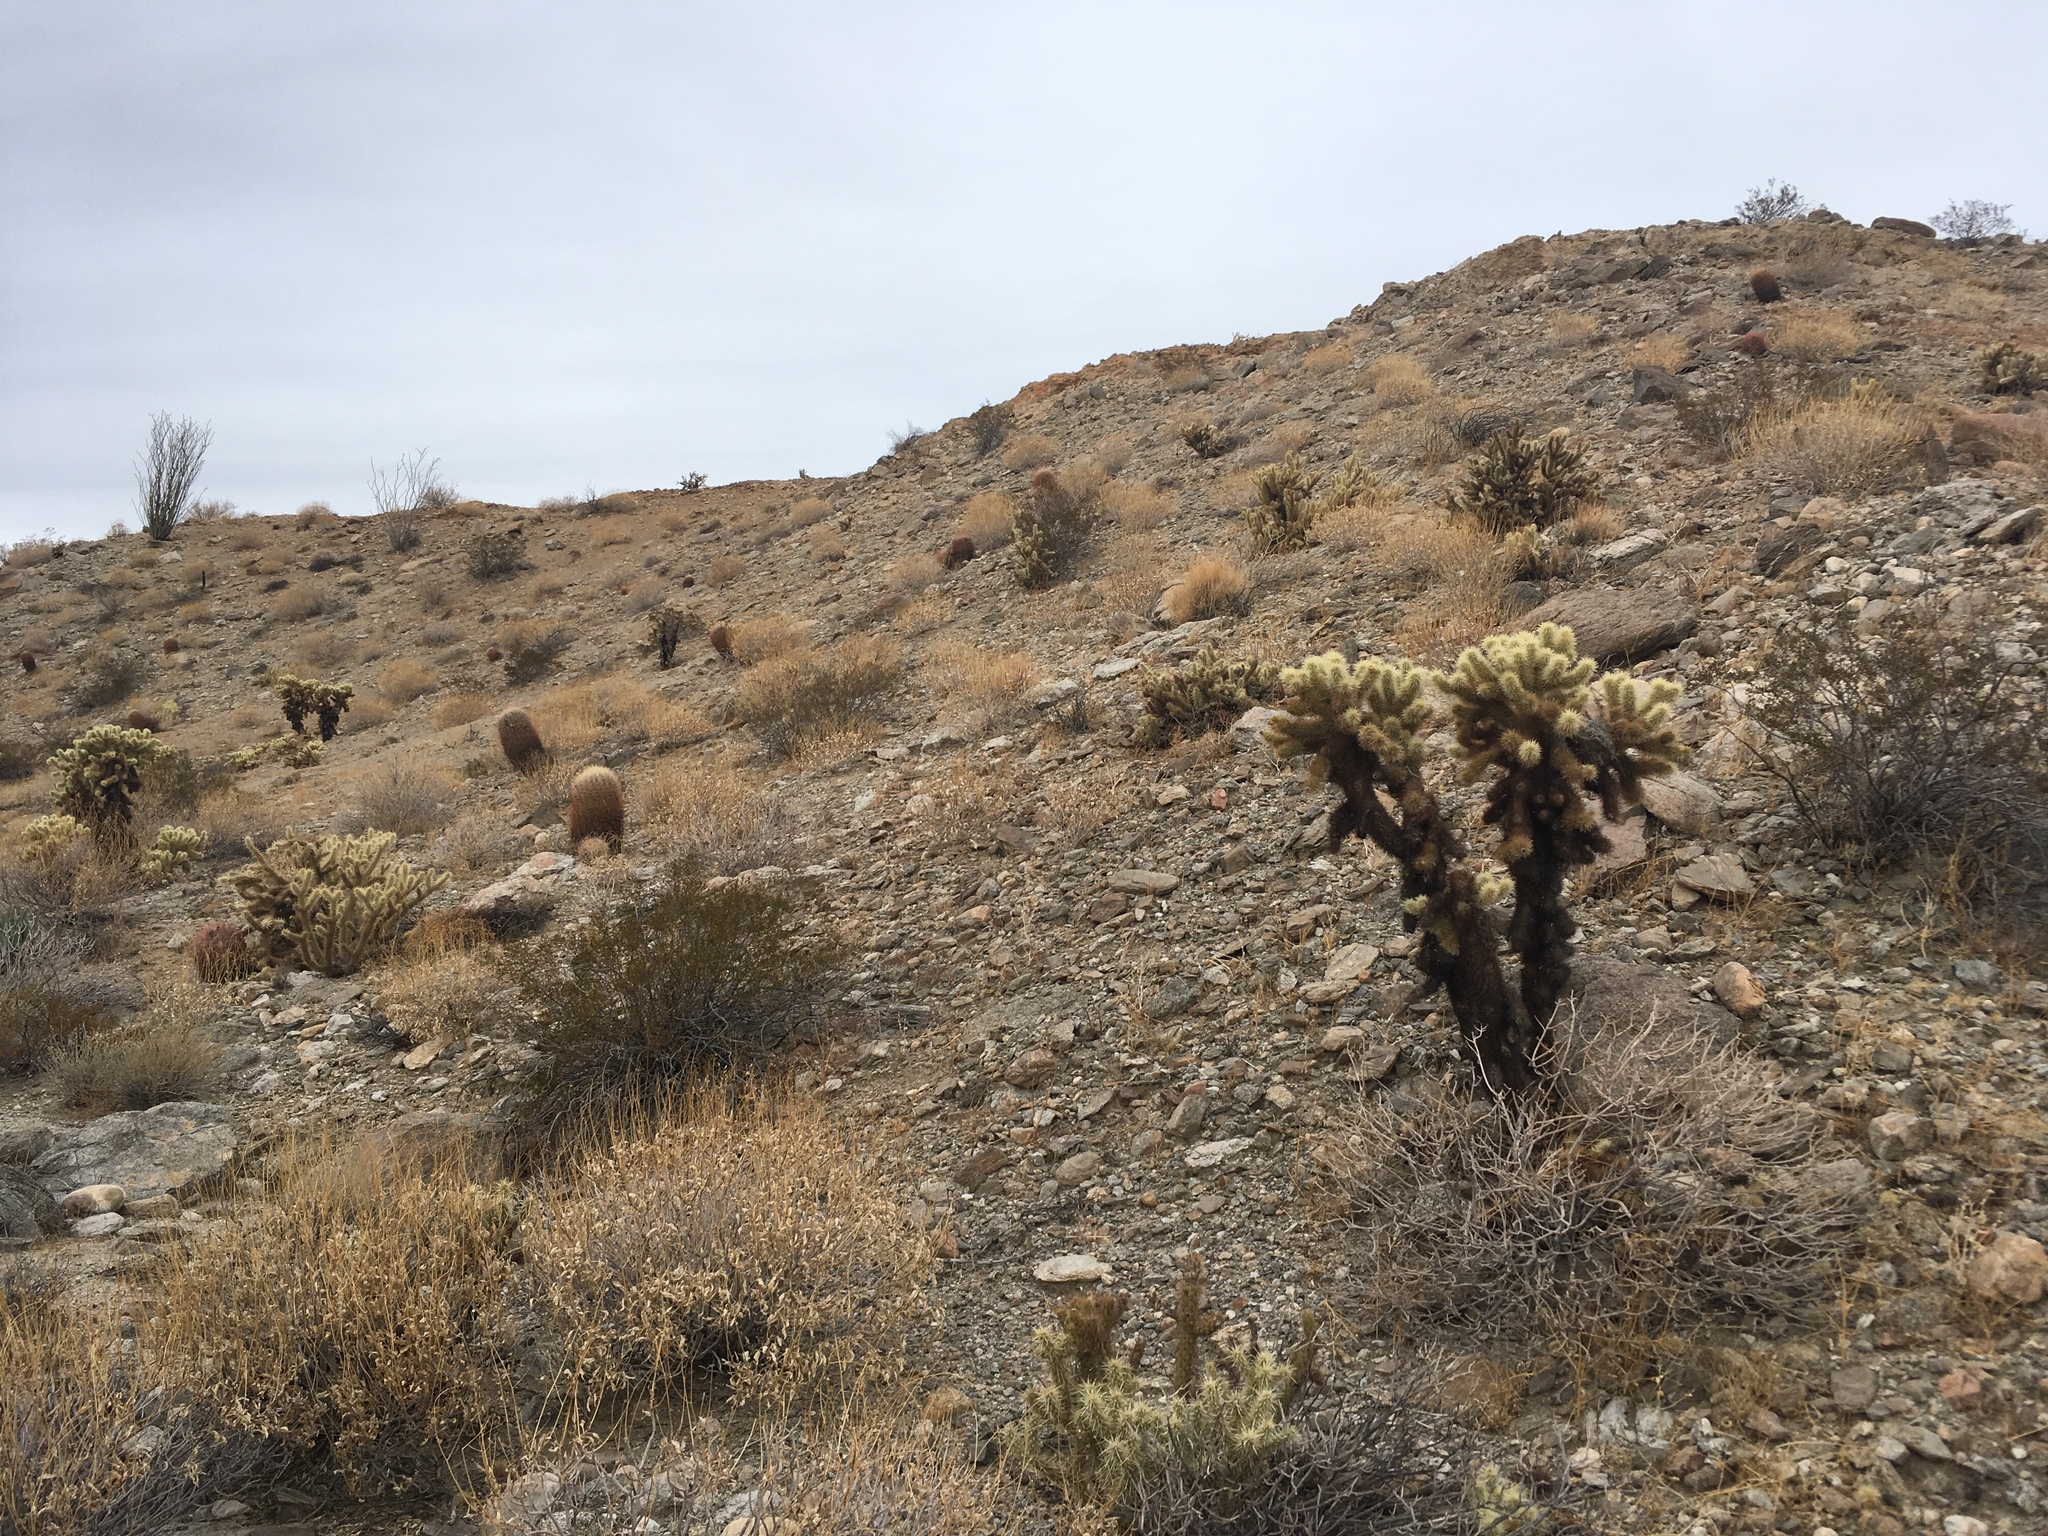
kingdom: Plantae
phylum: Tracheophyta
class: Magnoliopsida
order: Caryophyllales
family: Cactaceae
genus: Cylindropuntia
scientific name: Cylindropuntia fosbergii
